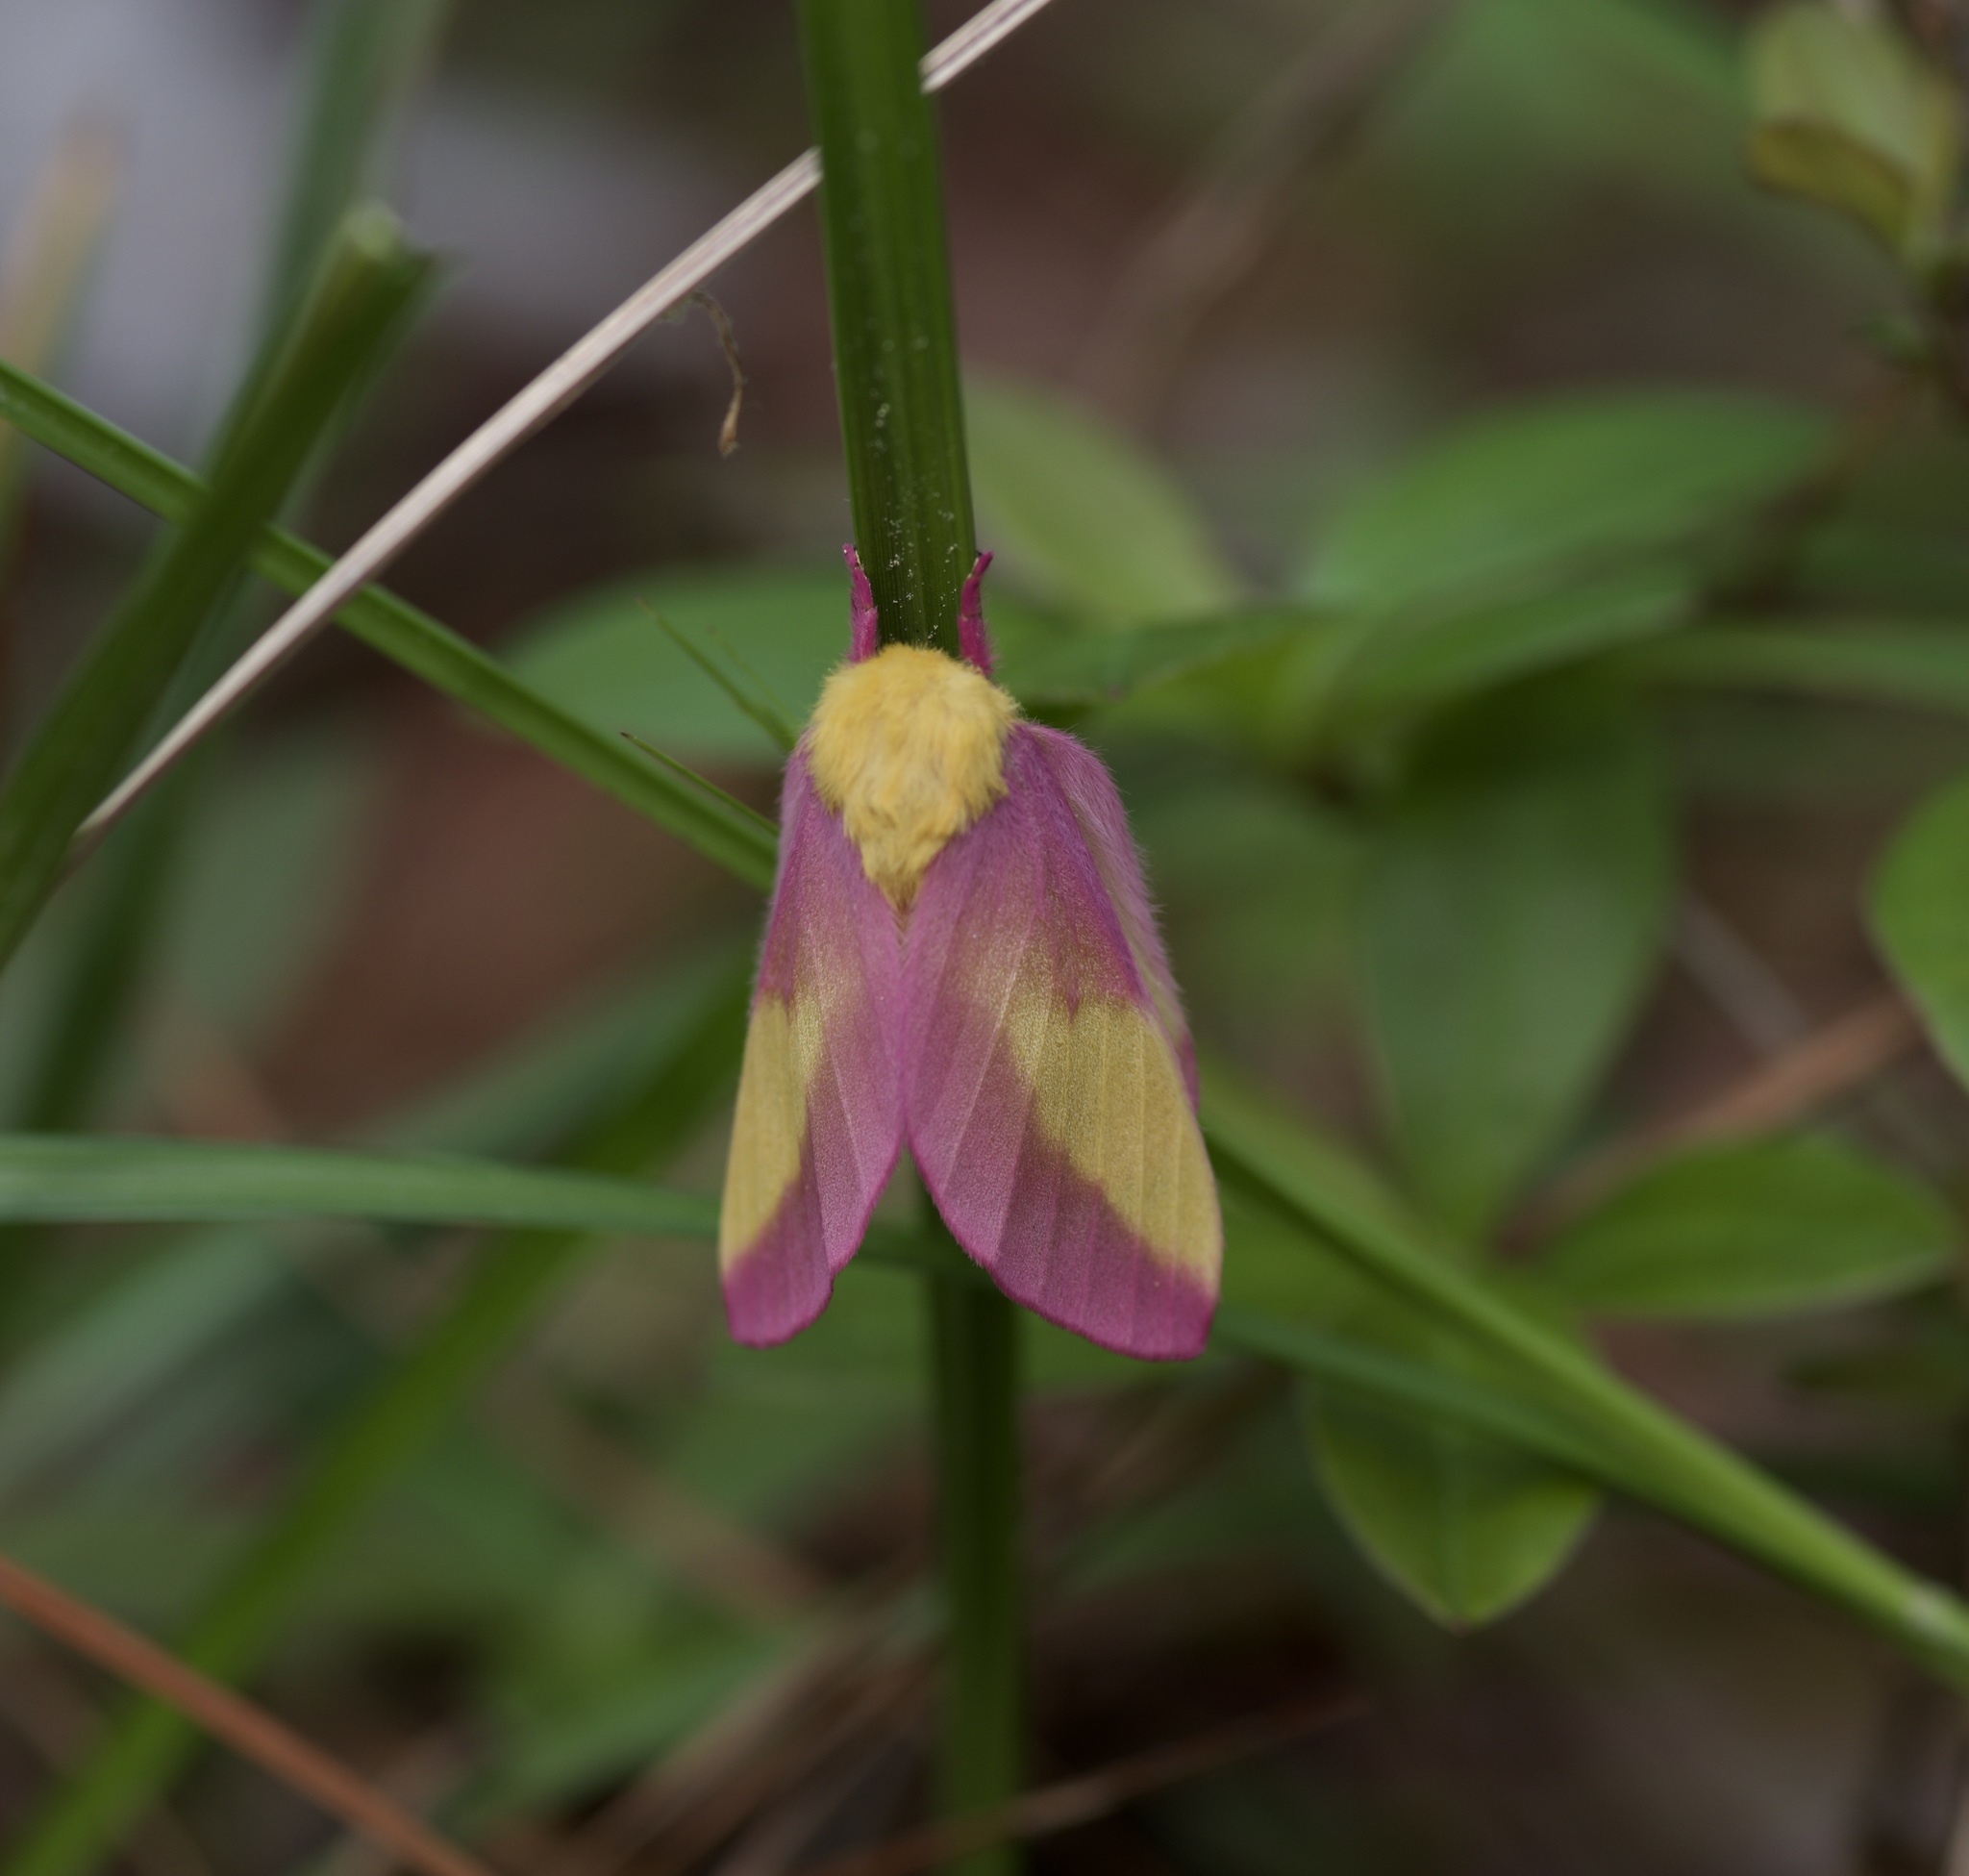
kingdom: Animalia
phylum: Arthropoda
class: Insecta
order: Lepidoptera
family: Saturniidae
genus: Dryocampa
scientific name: Dryocampa rubicunda
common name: Rosy maple moth
